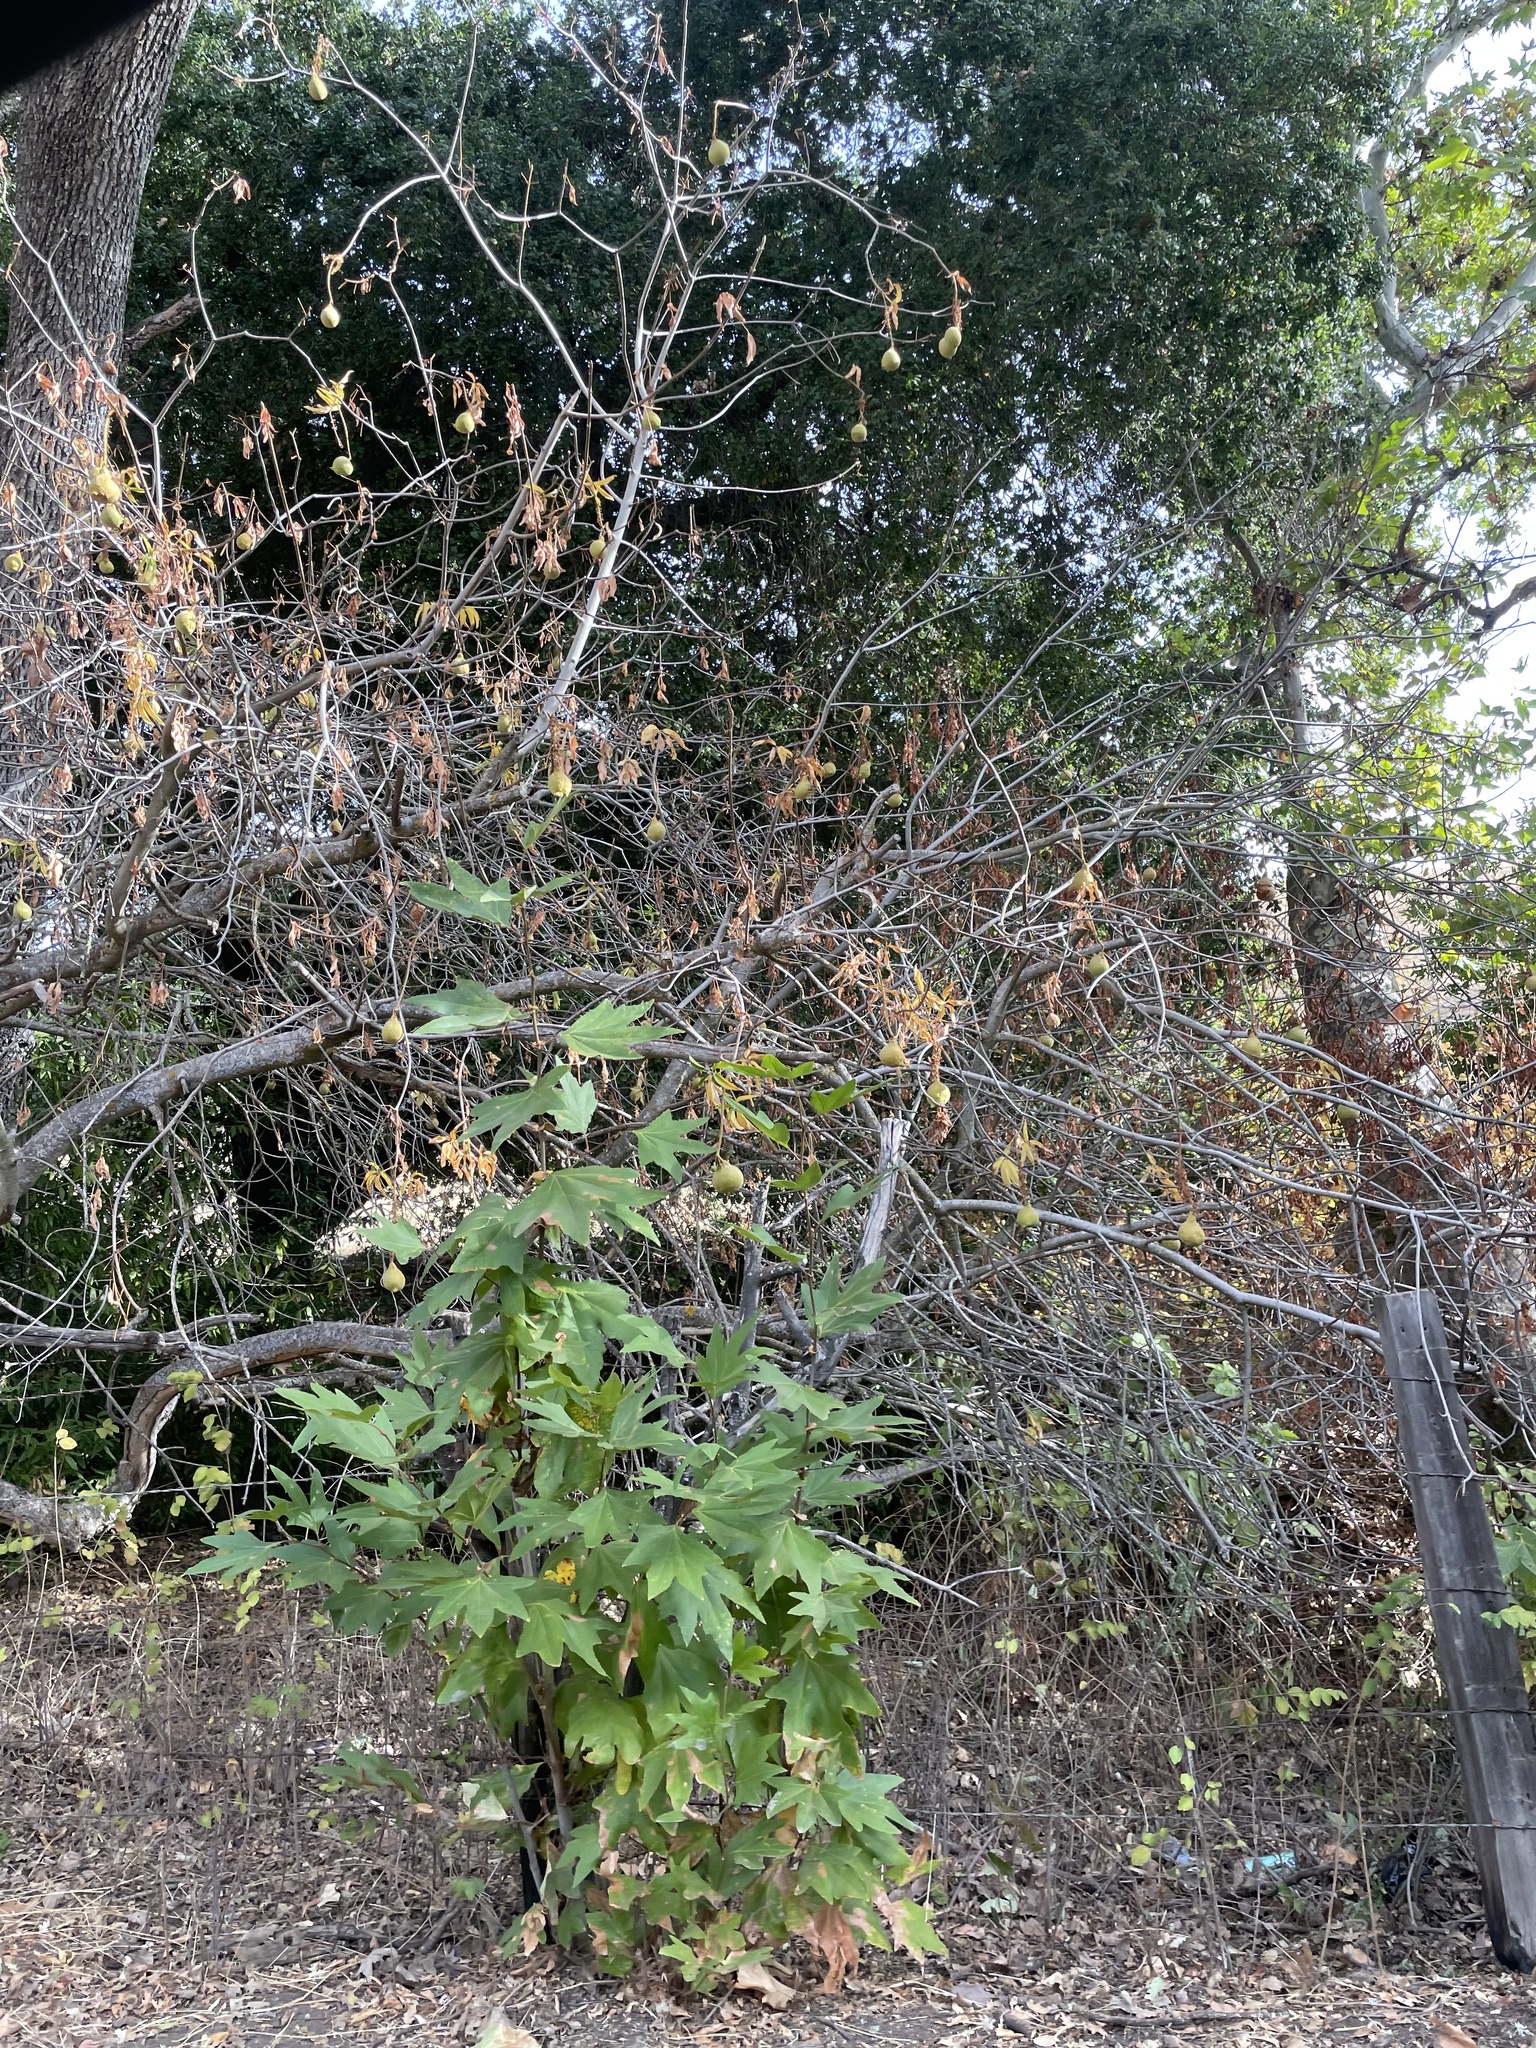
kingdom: Plantae
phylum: Tracheophyta
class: Magnoliopsida
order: Sapindales
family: Sapindaceae
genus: Aesculus
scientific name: Aesculus californica
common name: California buckeye
